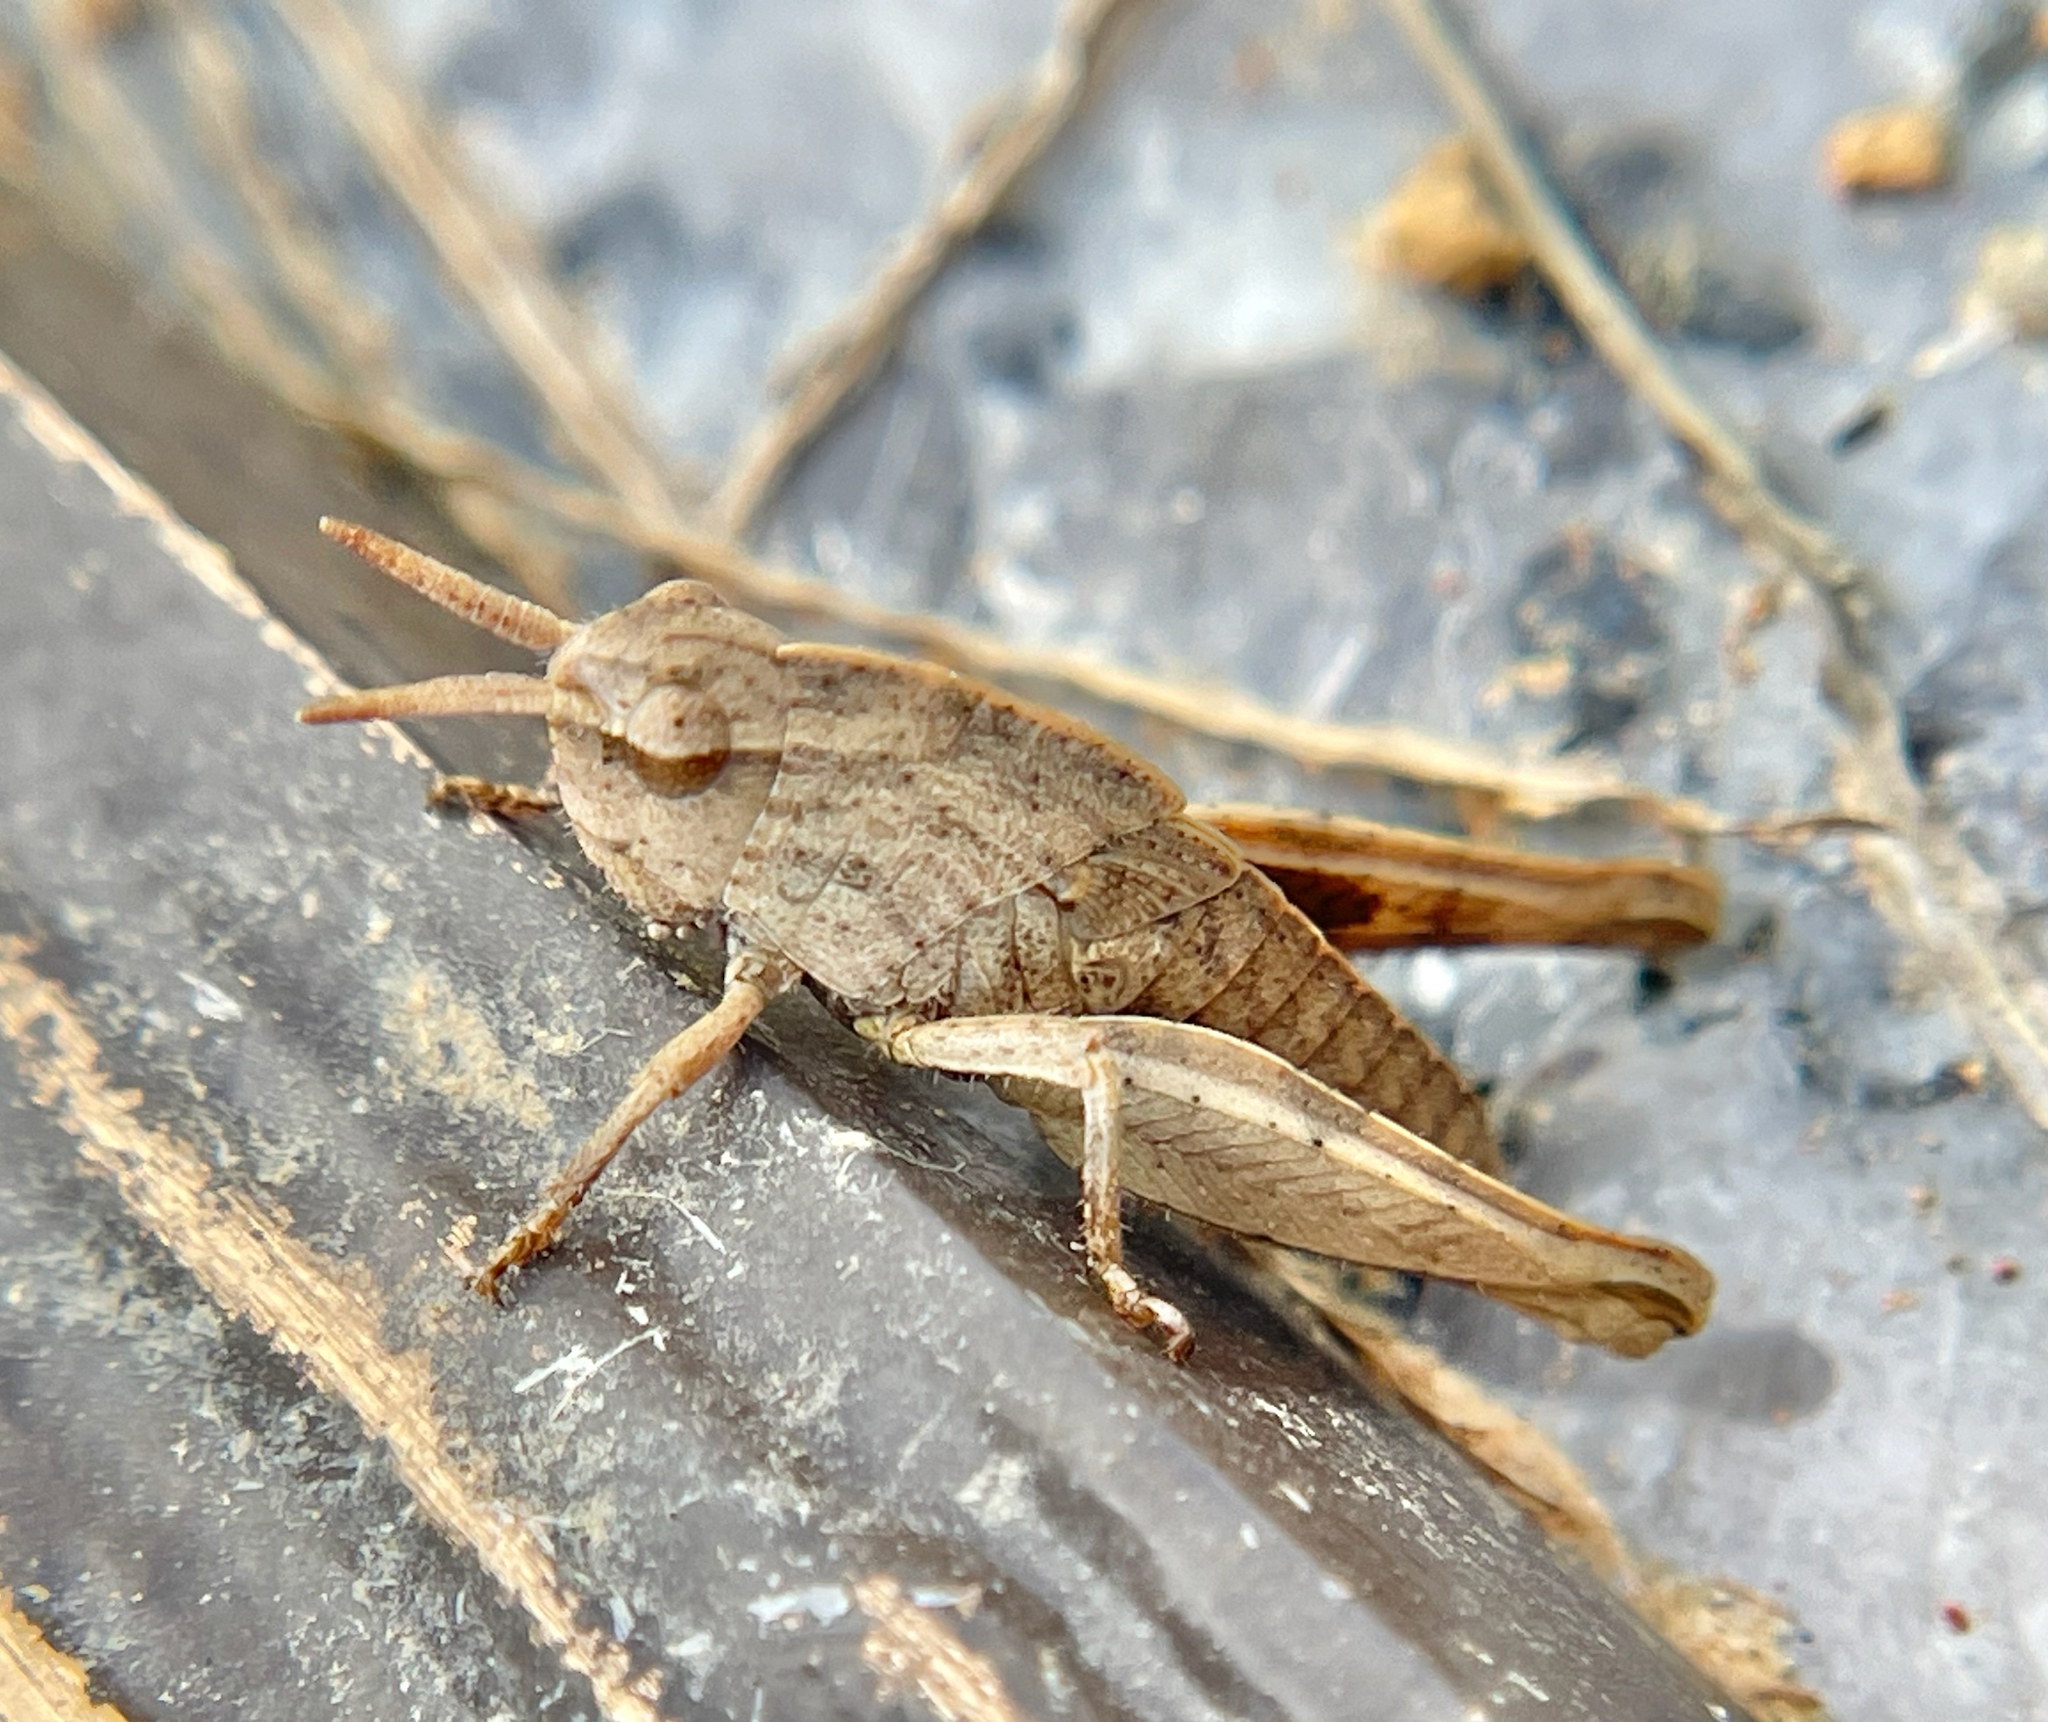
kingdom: Animalia
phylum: Arthropoda
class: Insecta
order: Orthoptera
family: Acrididae
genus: Chortophaga
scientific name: Chortophaga viridifasciata
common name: Green-striped grasshopper
